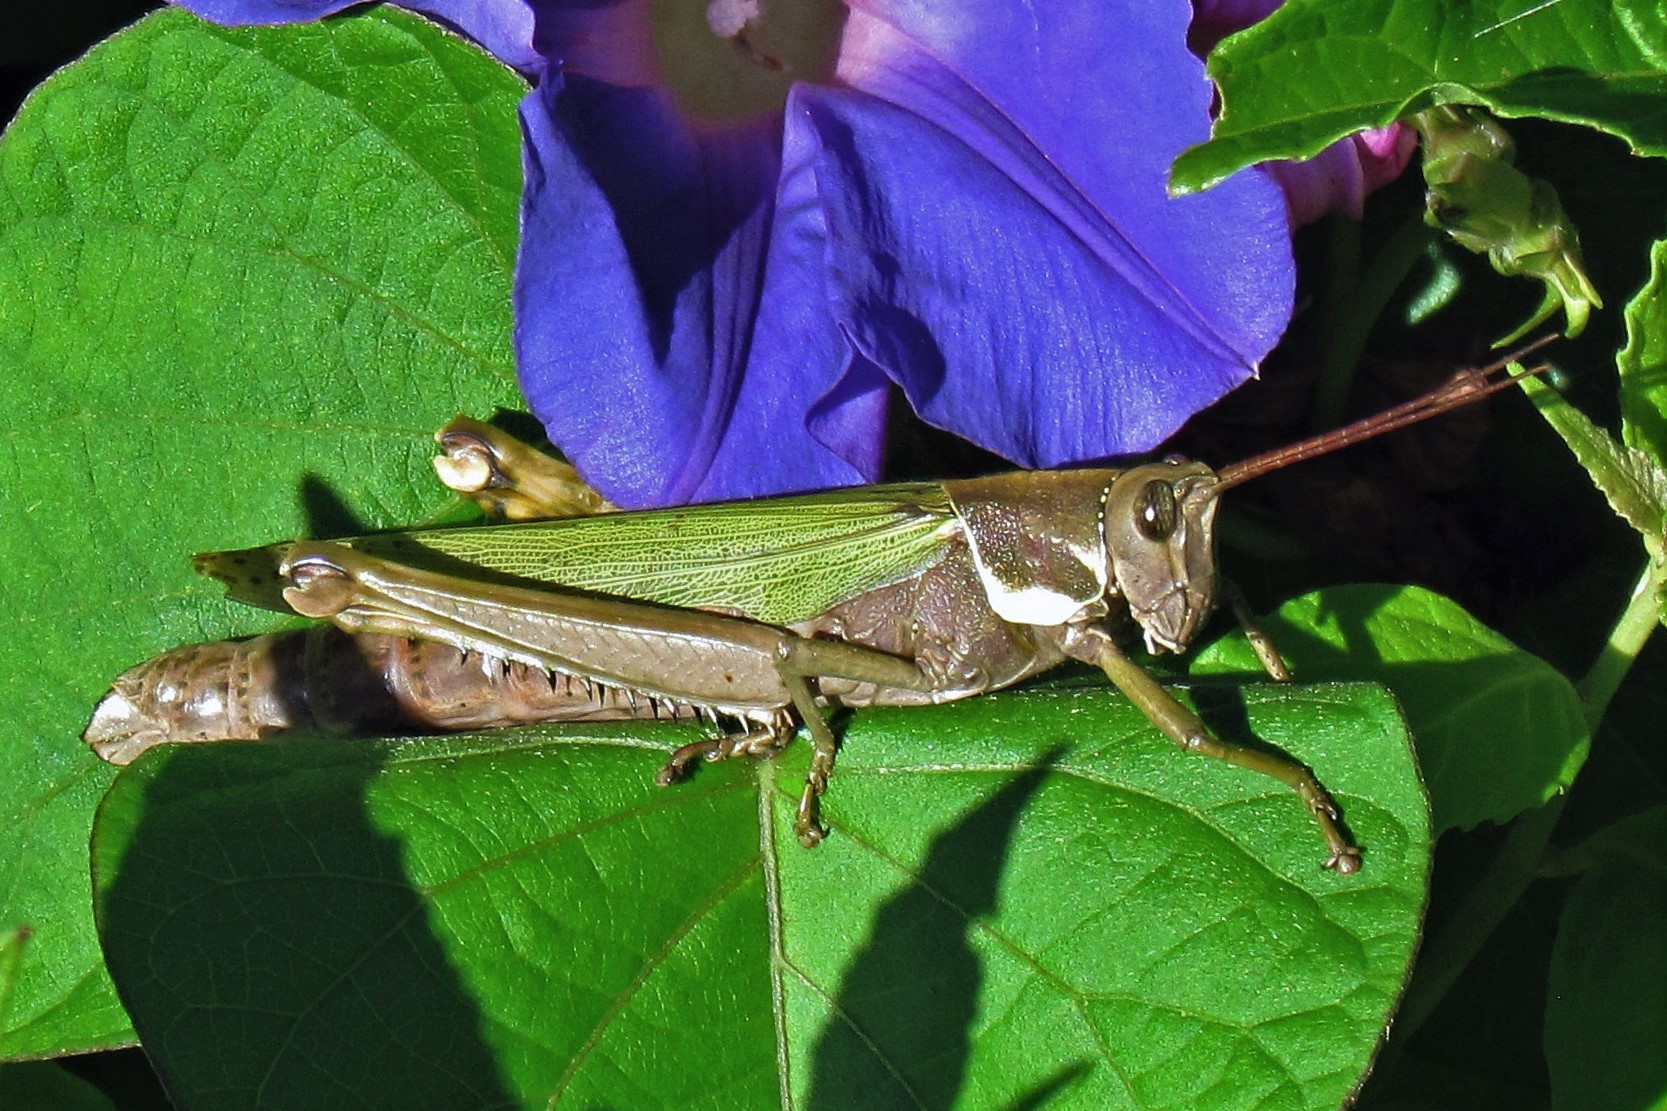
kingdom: Animalia
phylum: Arthropoda
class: Insecta
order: Orthoptera
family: Romaleidae
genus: Coryacris
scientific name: Coryacris angustipennis
